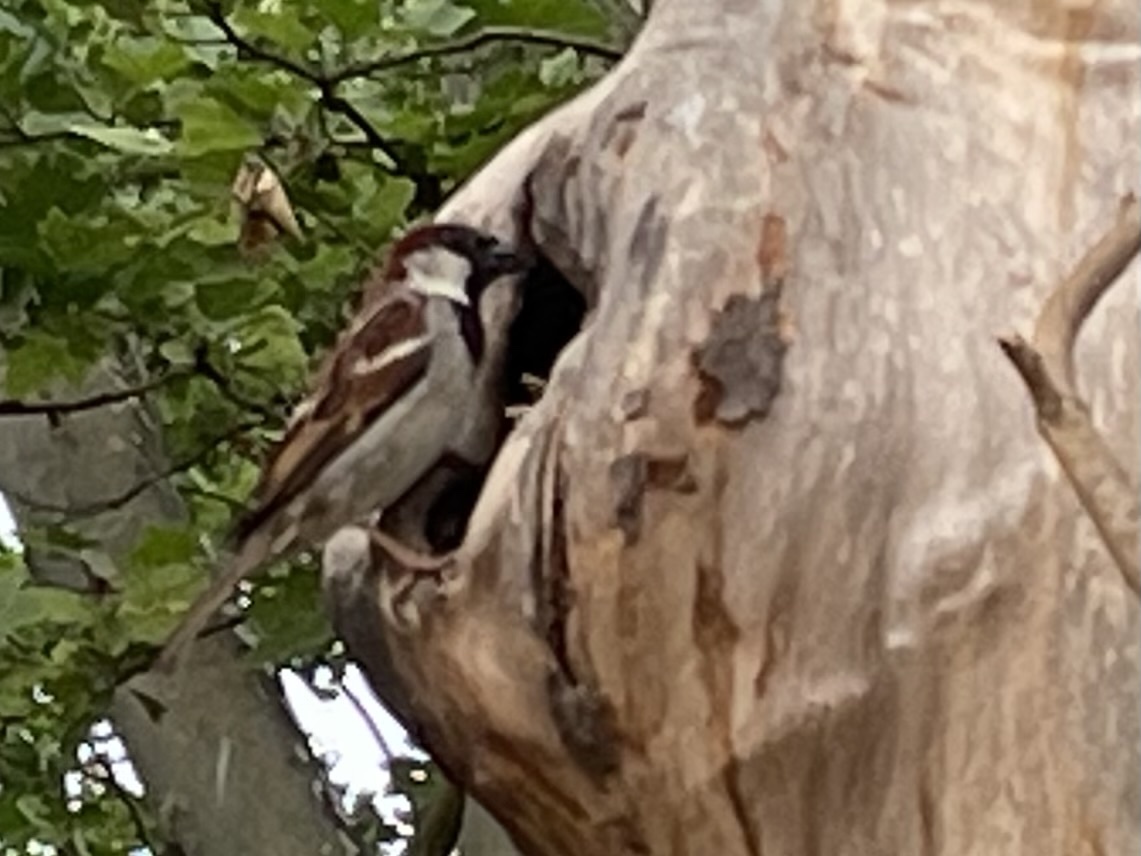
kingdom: Animalia
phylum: Chordata
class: Aves
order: Passeriformes
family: Passeridae
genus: Passer
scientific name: Passer domesticus
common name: House sparrow
